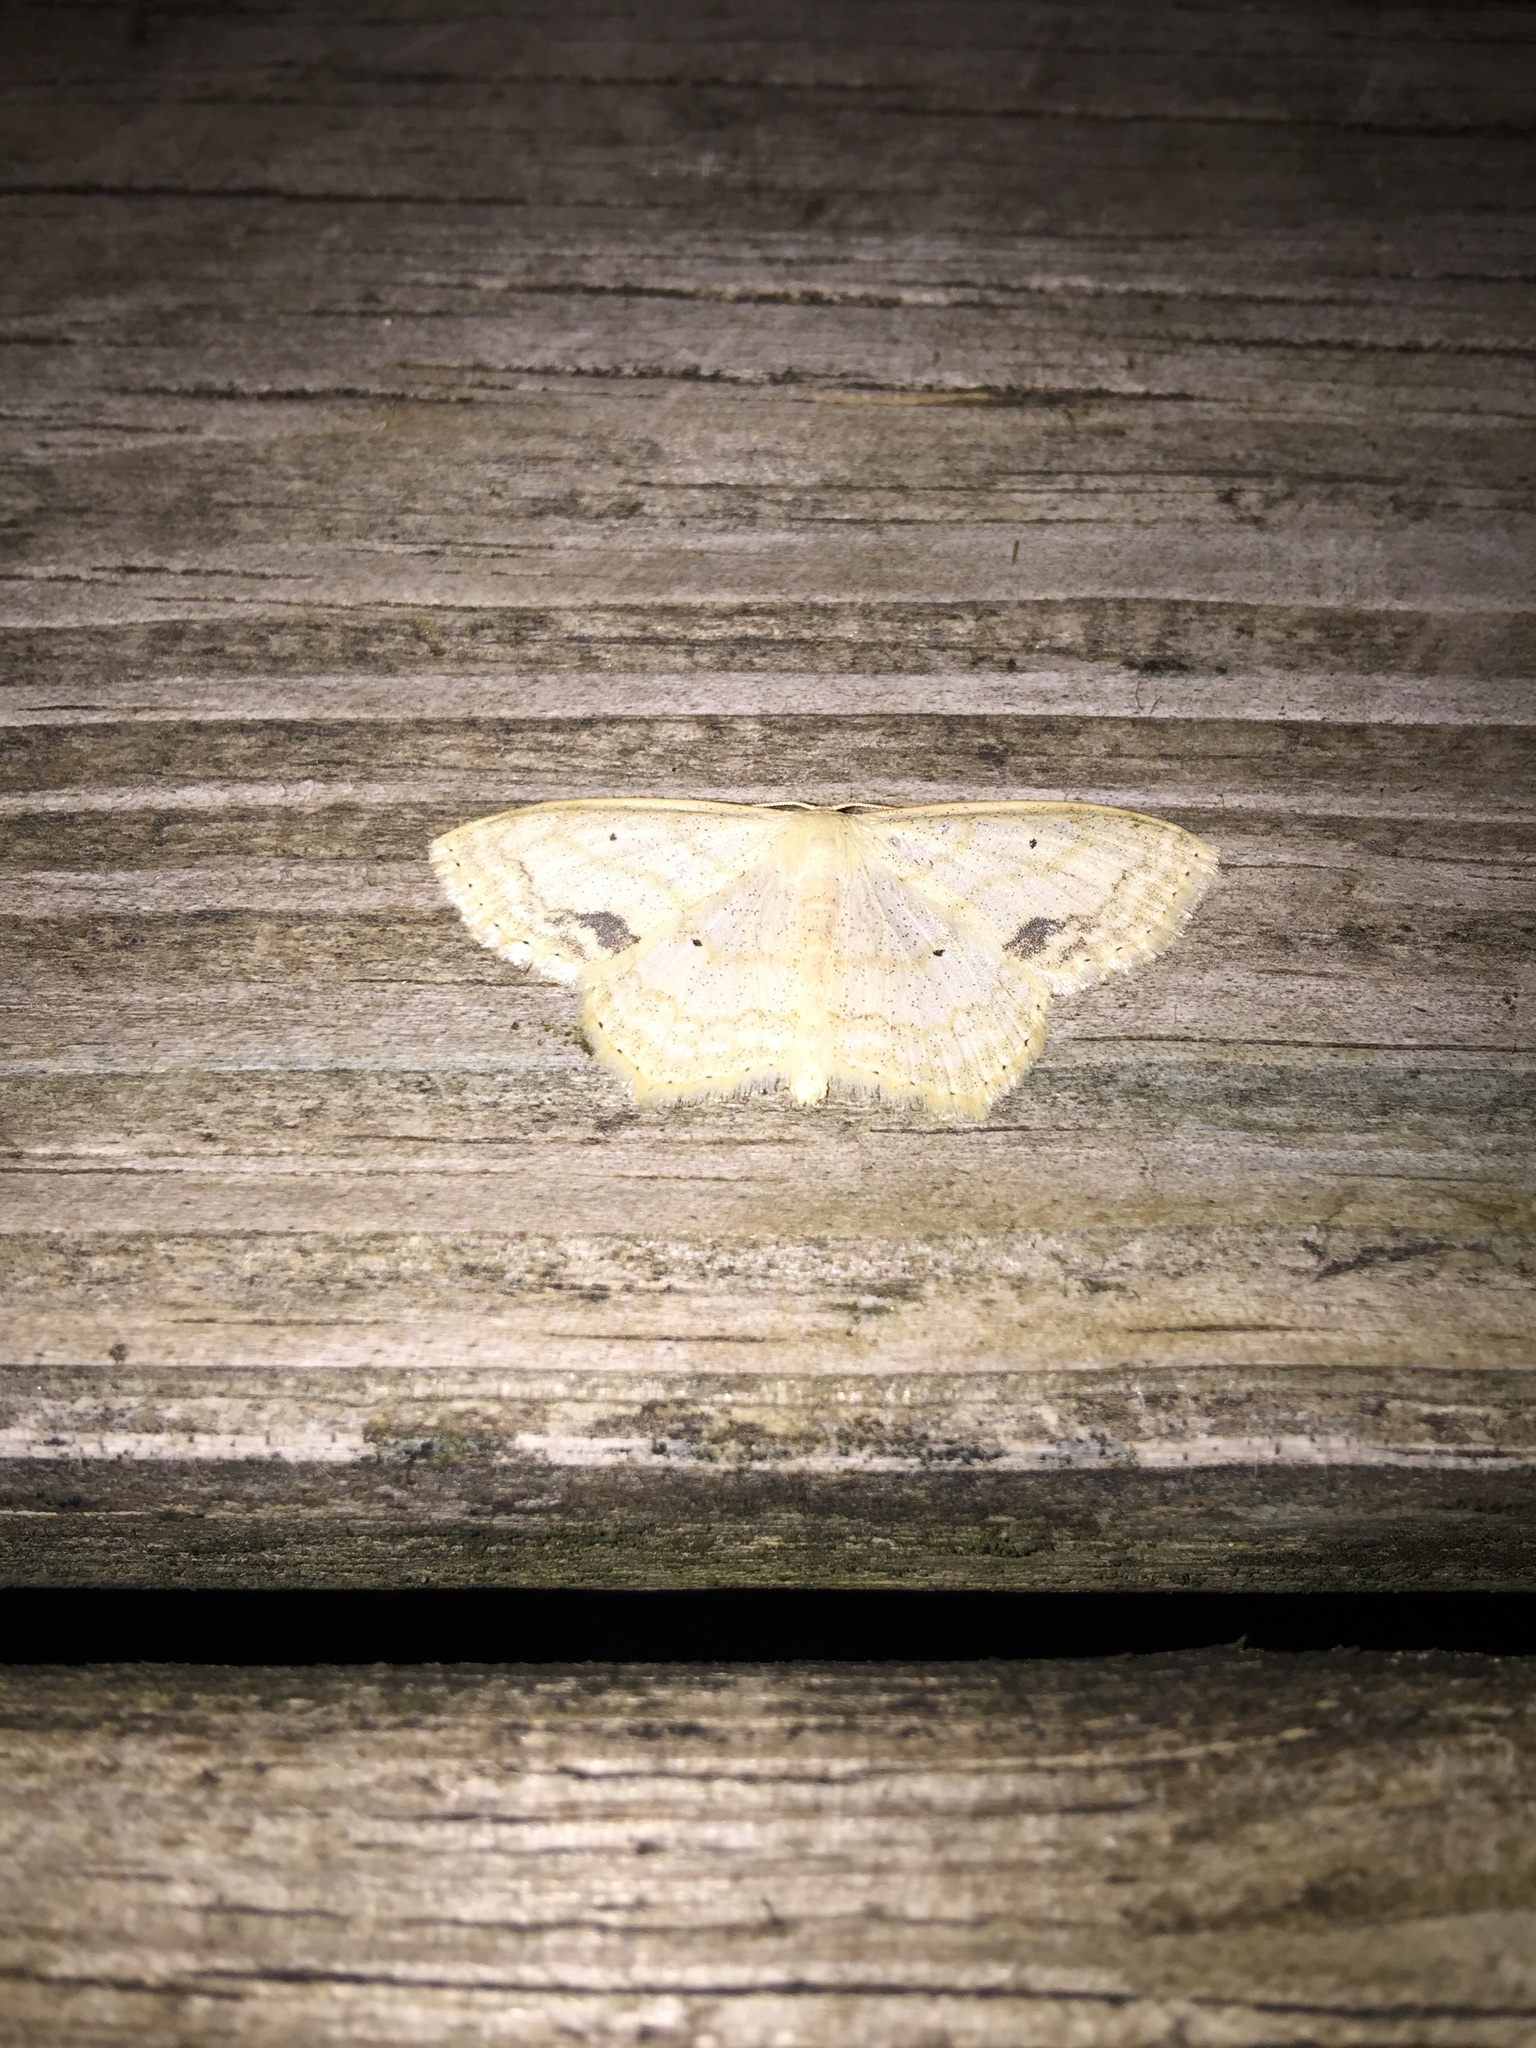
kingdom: Animalia
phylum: Arthropoda
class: Insecta
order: Lepidoptera
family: Geometridae
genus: Scopula
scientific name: Scopula limboundata
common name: Large lace border
